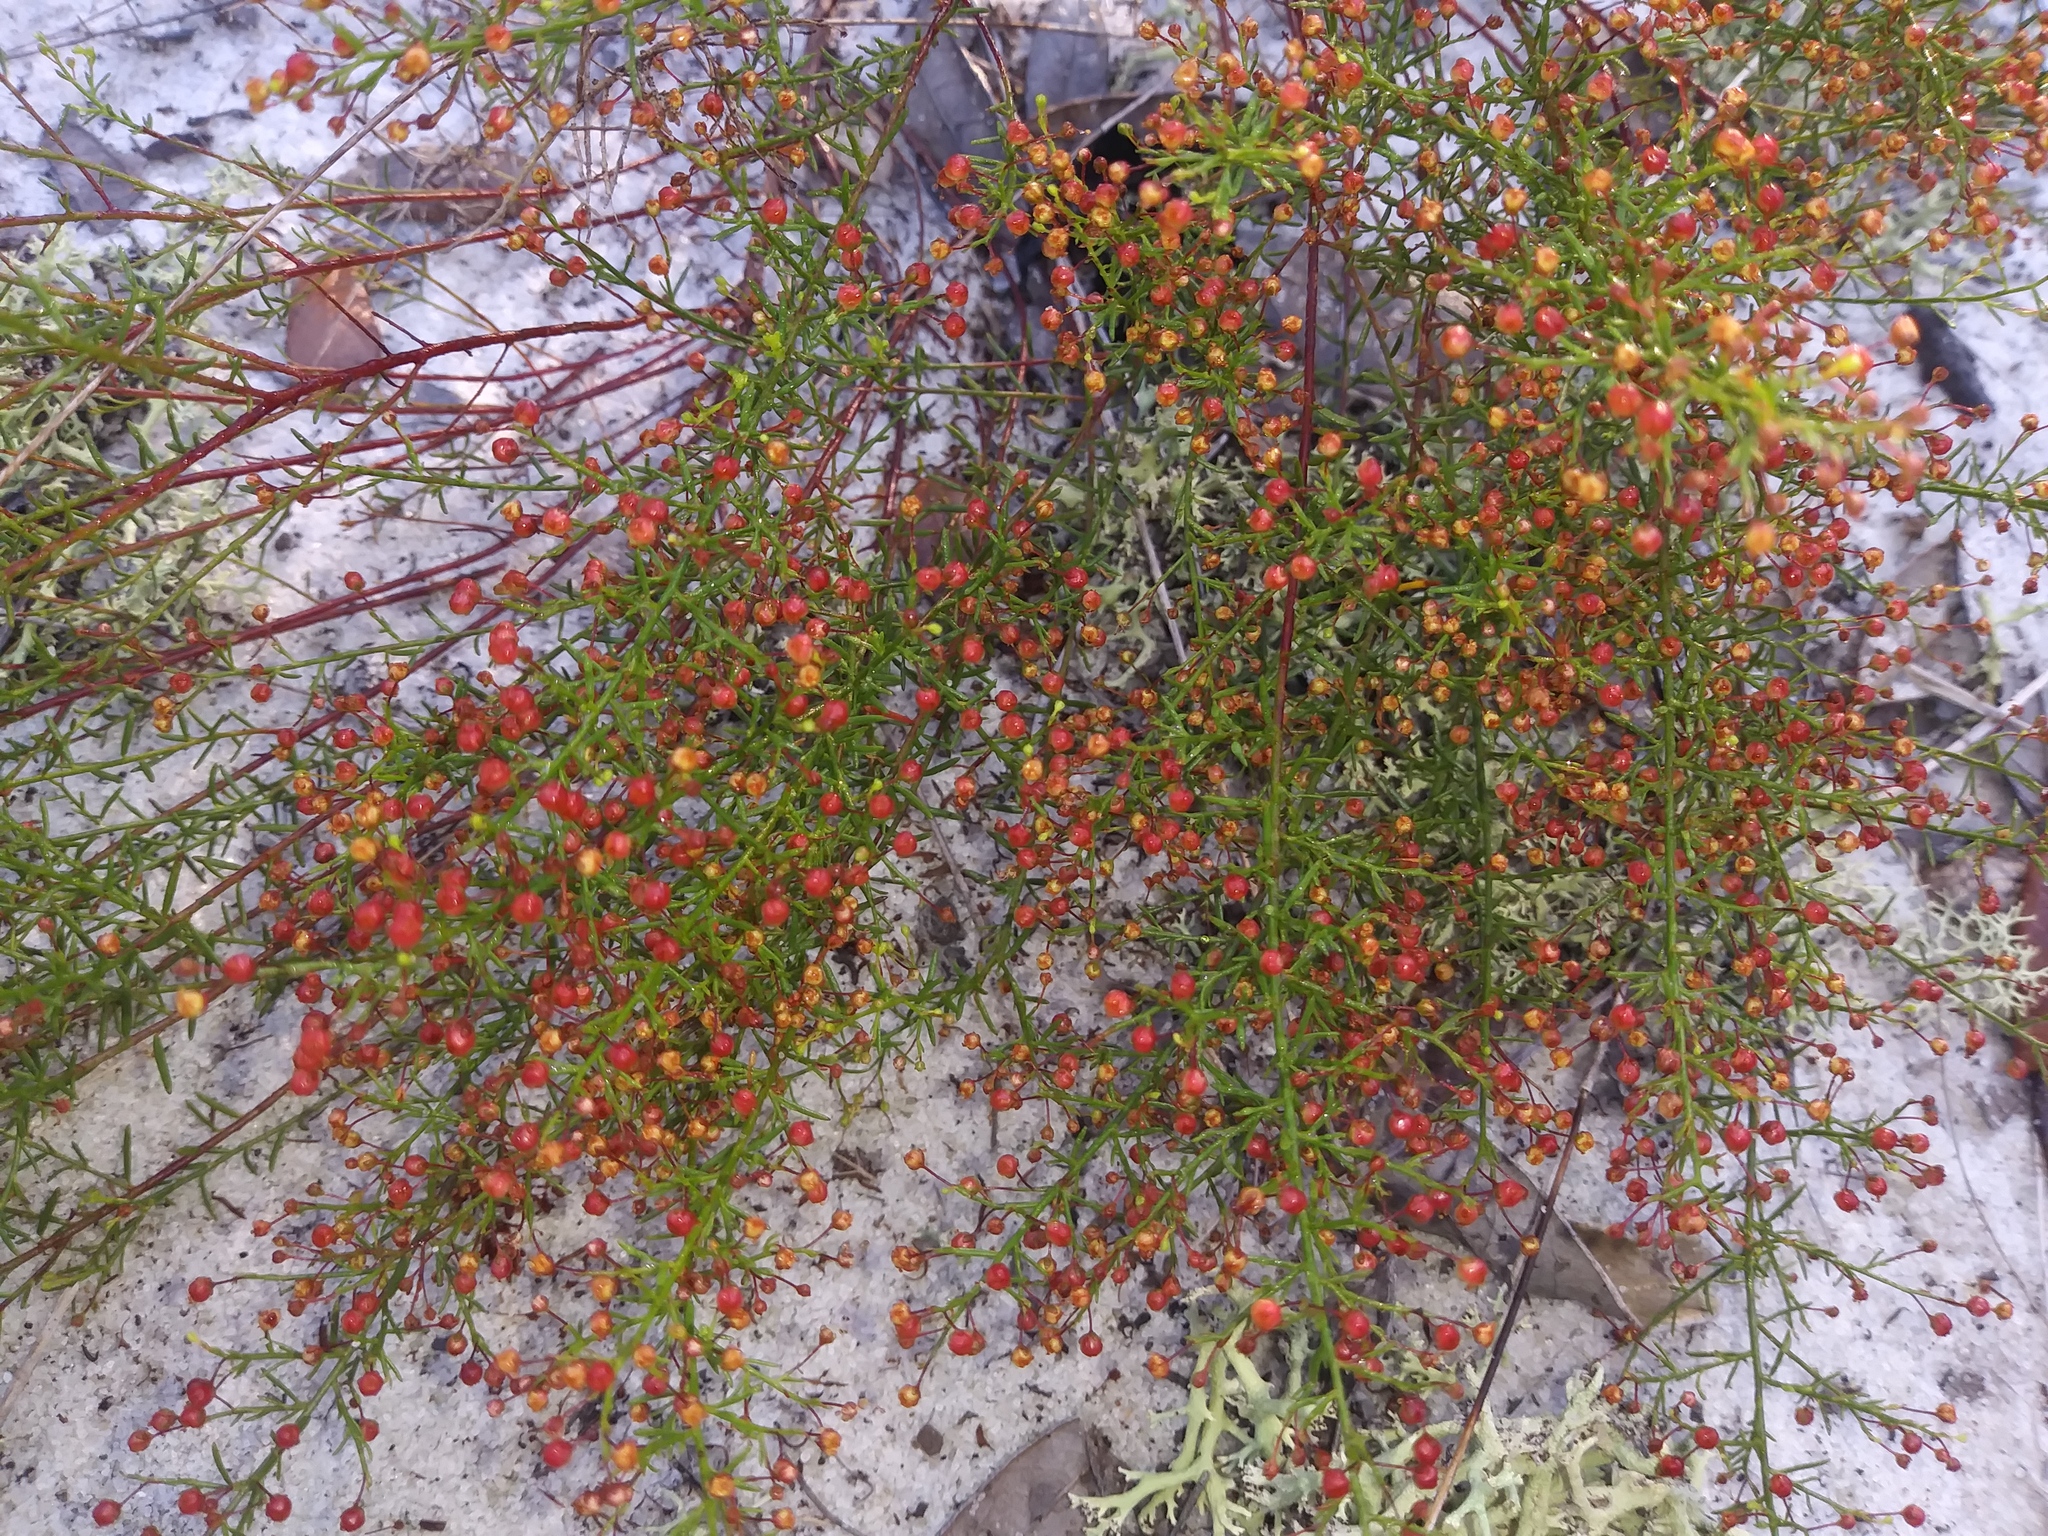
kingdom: Plantae
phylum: Tracheophyta
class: Magnoliopsida
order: Malvales
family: Cistaceae
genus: Lechea
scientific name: Lechea deckertii
